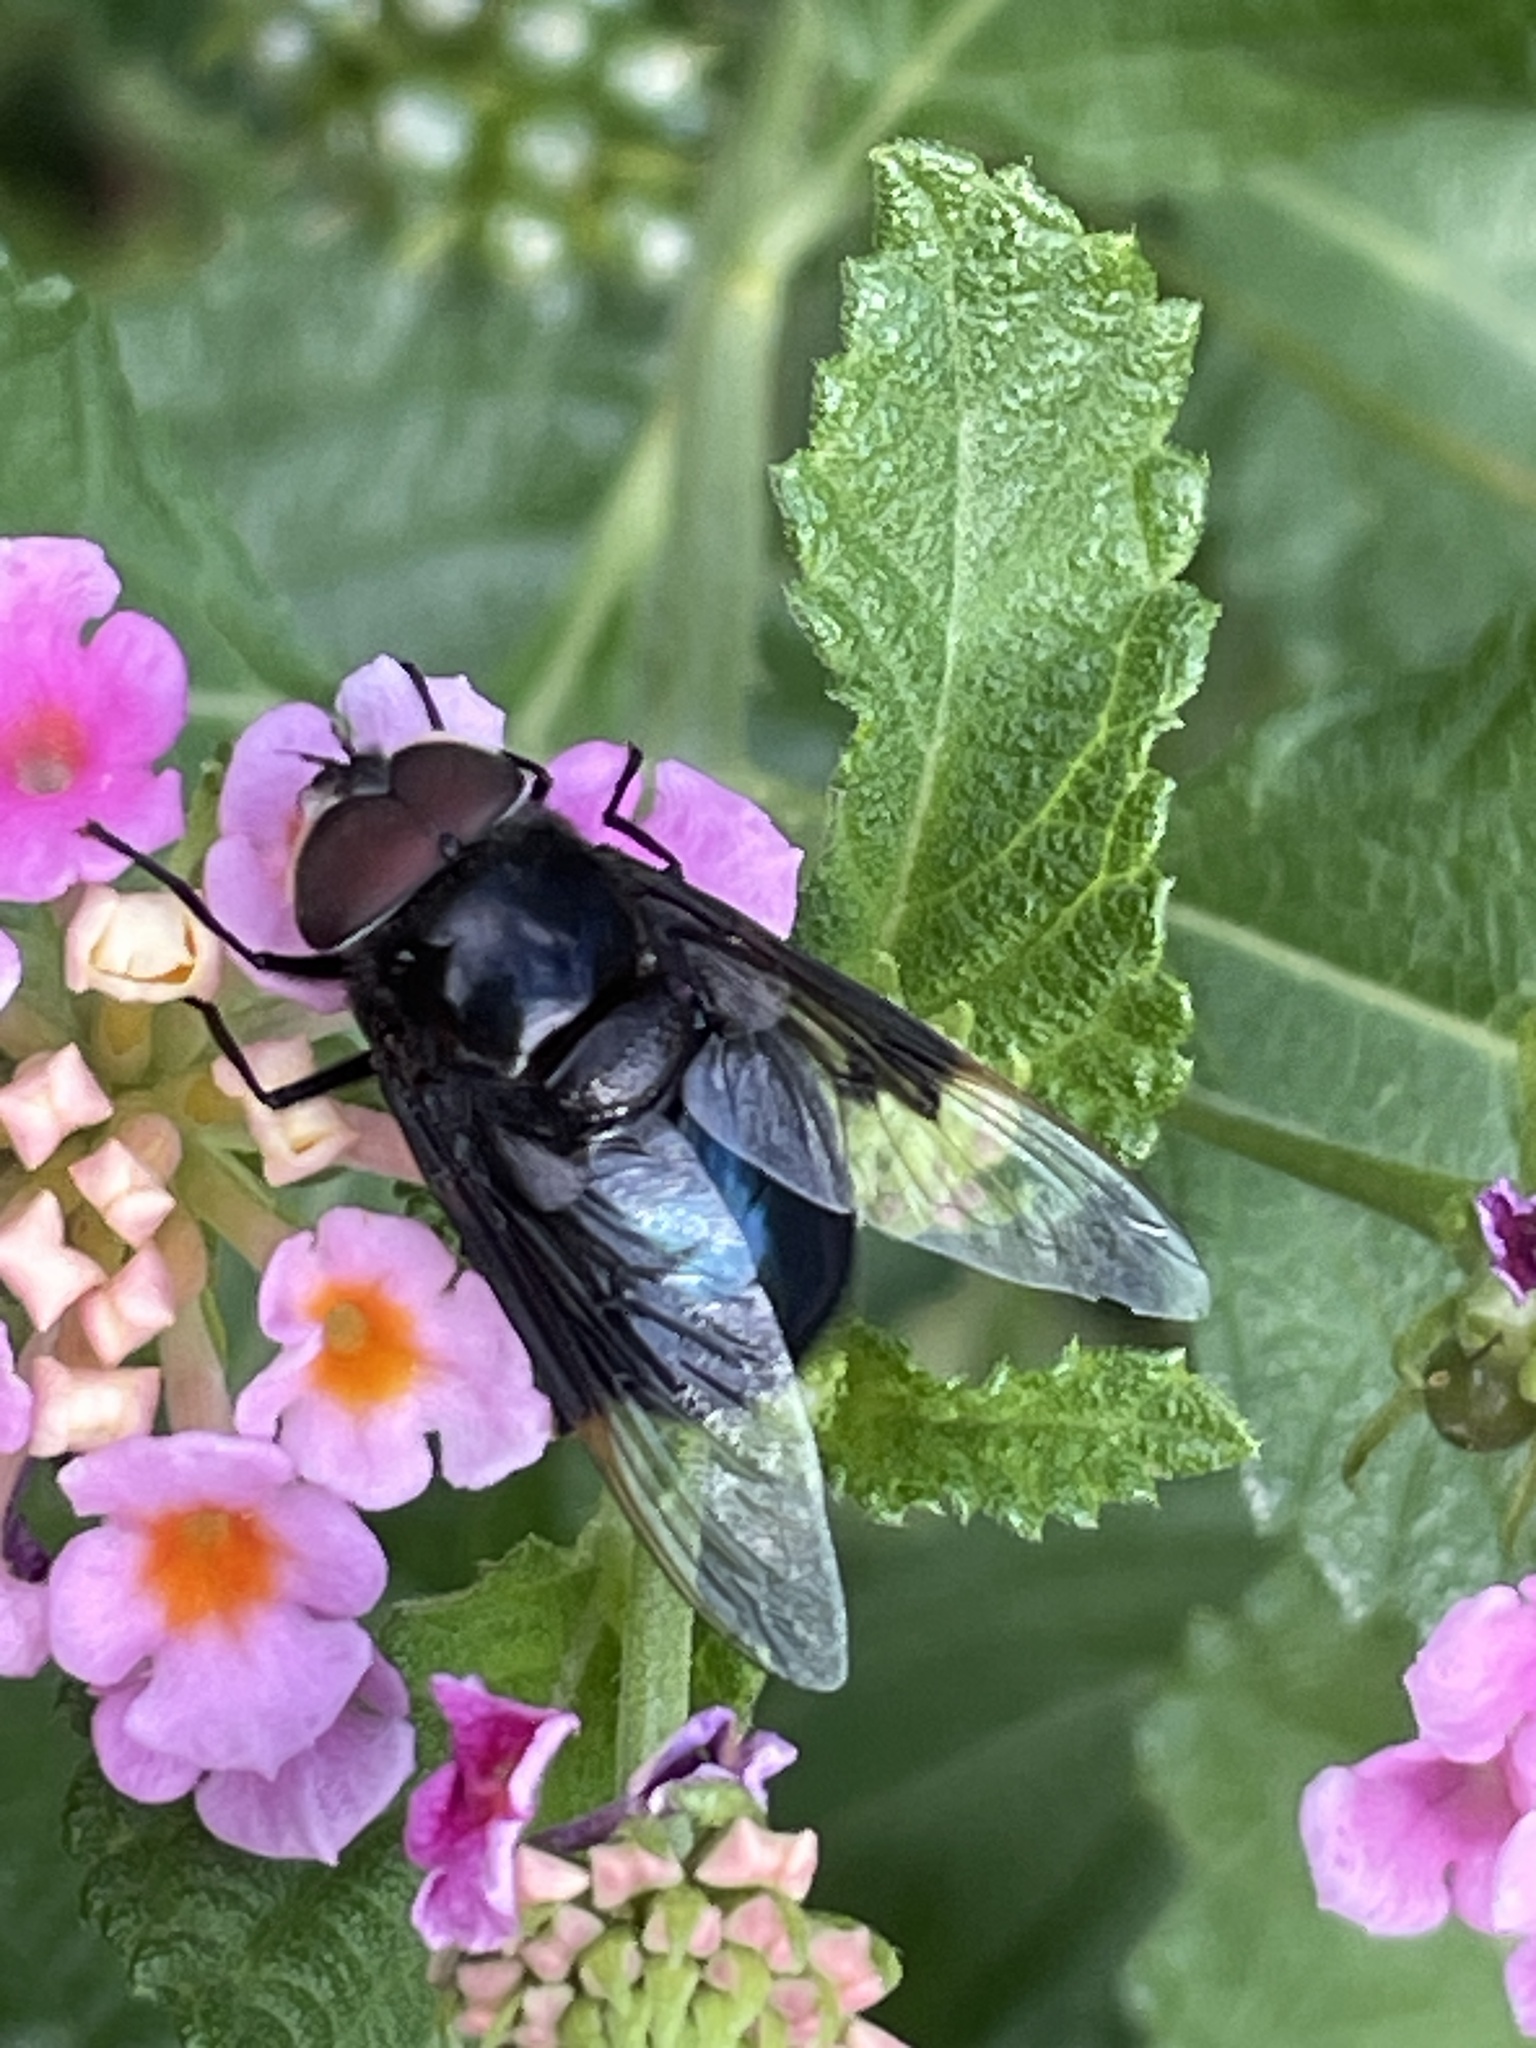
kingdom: Animalia
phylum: Arthropoda
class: Insecta
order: Diptera
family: Syrphidae
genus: Copestylum
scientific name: Copestylum mexicanum
